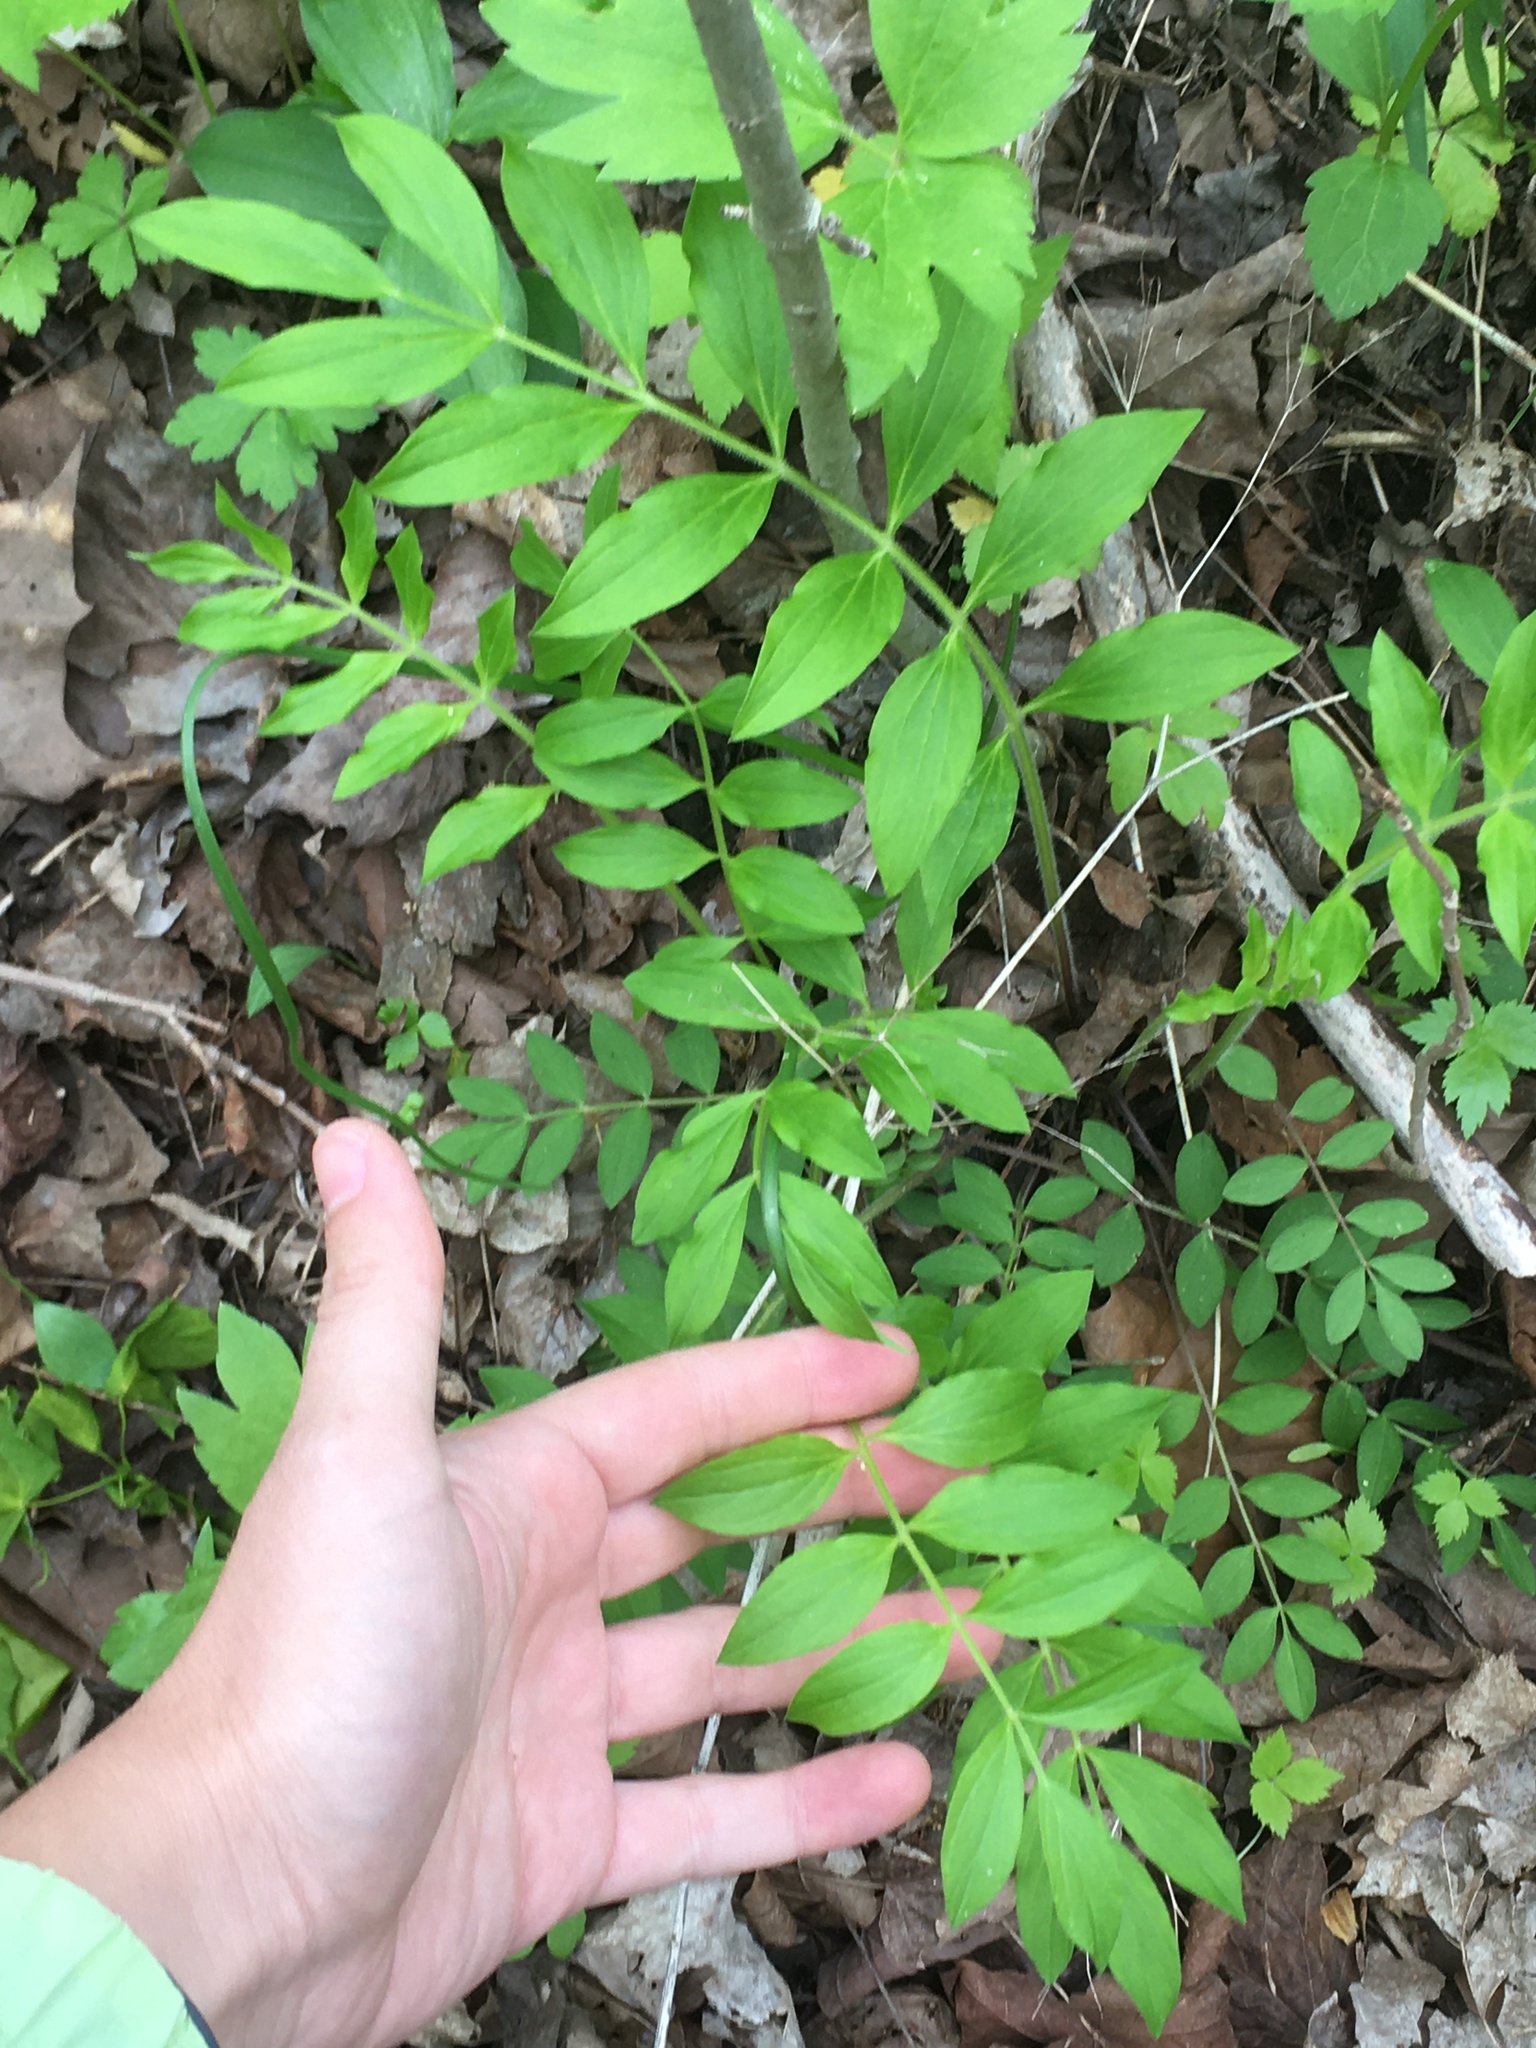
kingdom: Plantae
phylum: Tracheophyta
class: Magnoliopsida
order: Ericales
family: Polemoniaceae
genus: Polemonium
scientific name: Polemonium reptans
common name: Creeping jacob's-ladder
